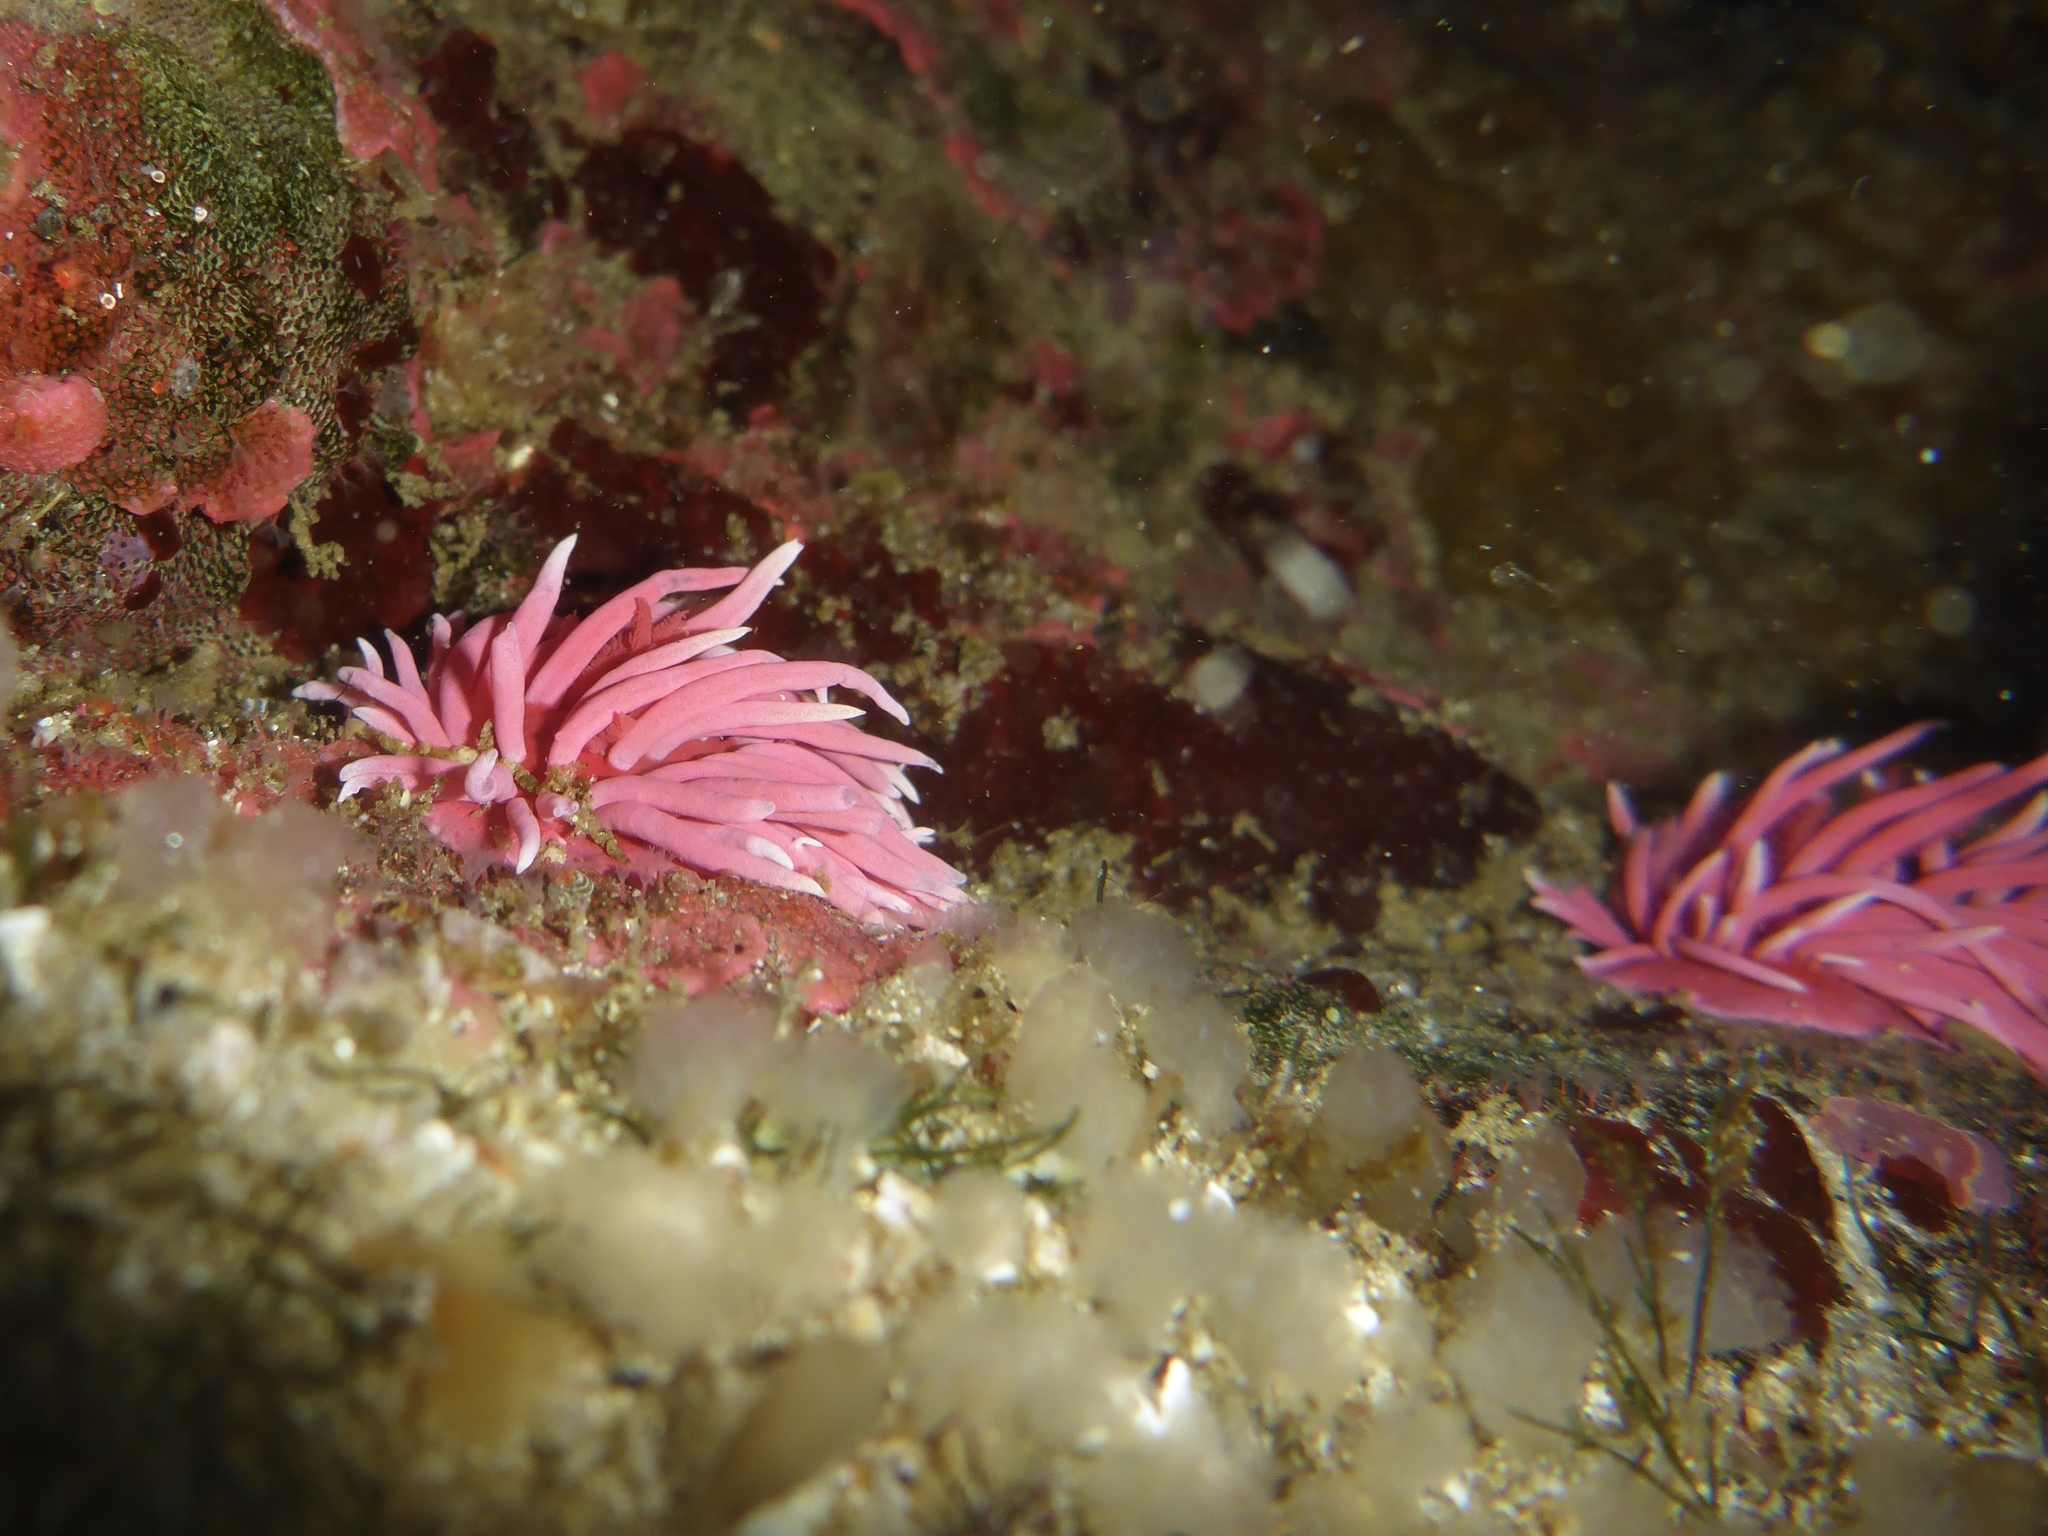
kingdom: Animalia
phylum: Mollusca
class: Gastropoda
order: Nudibranchia
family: Goniodorididae
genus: Okenia
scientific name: Okenia
